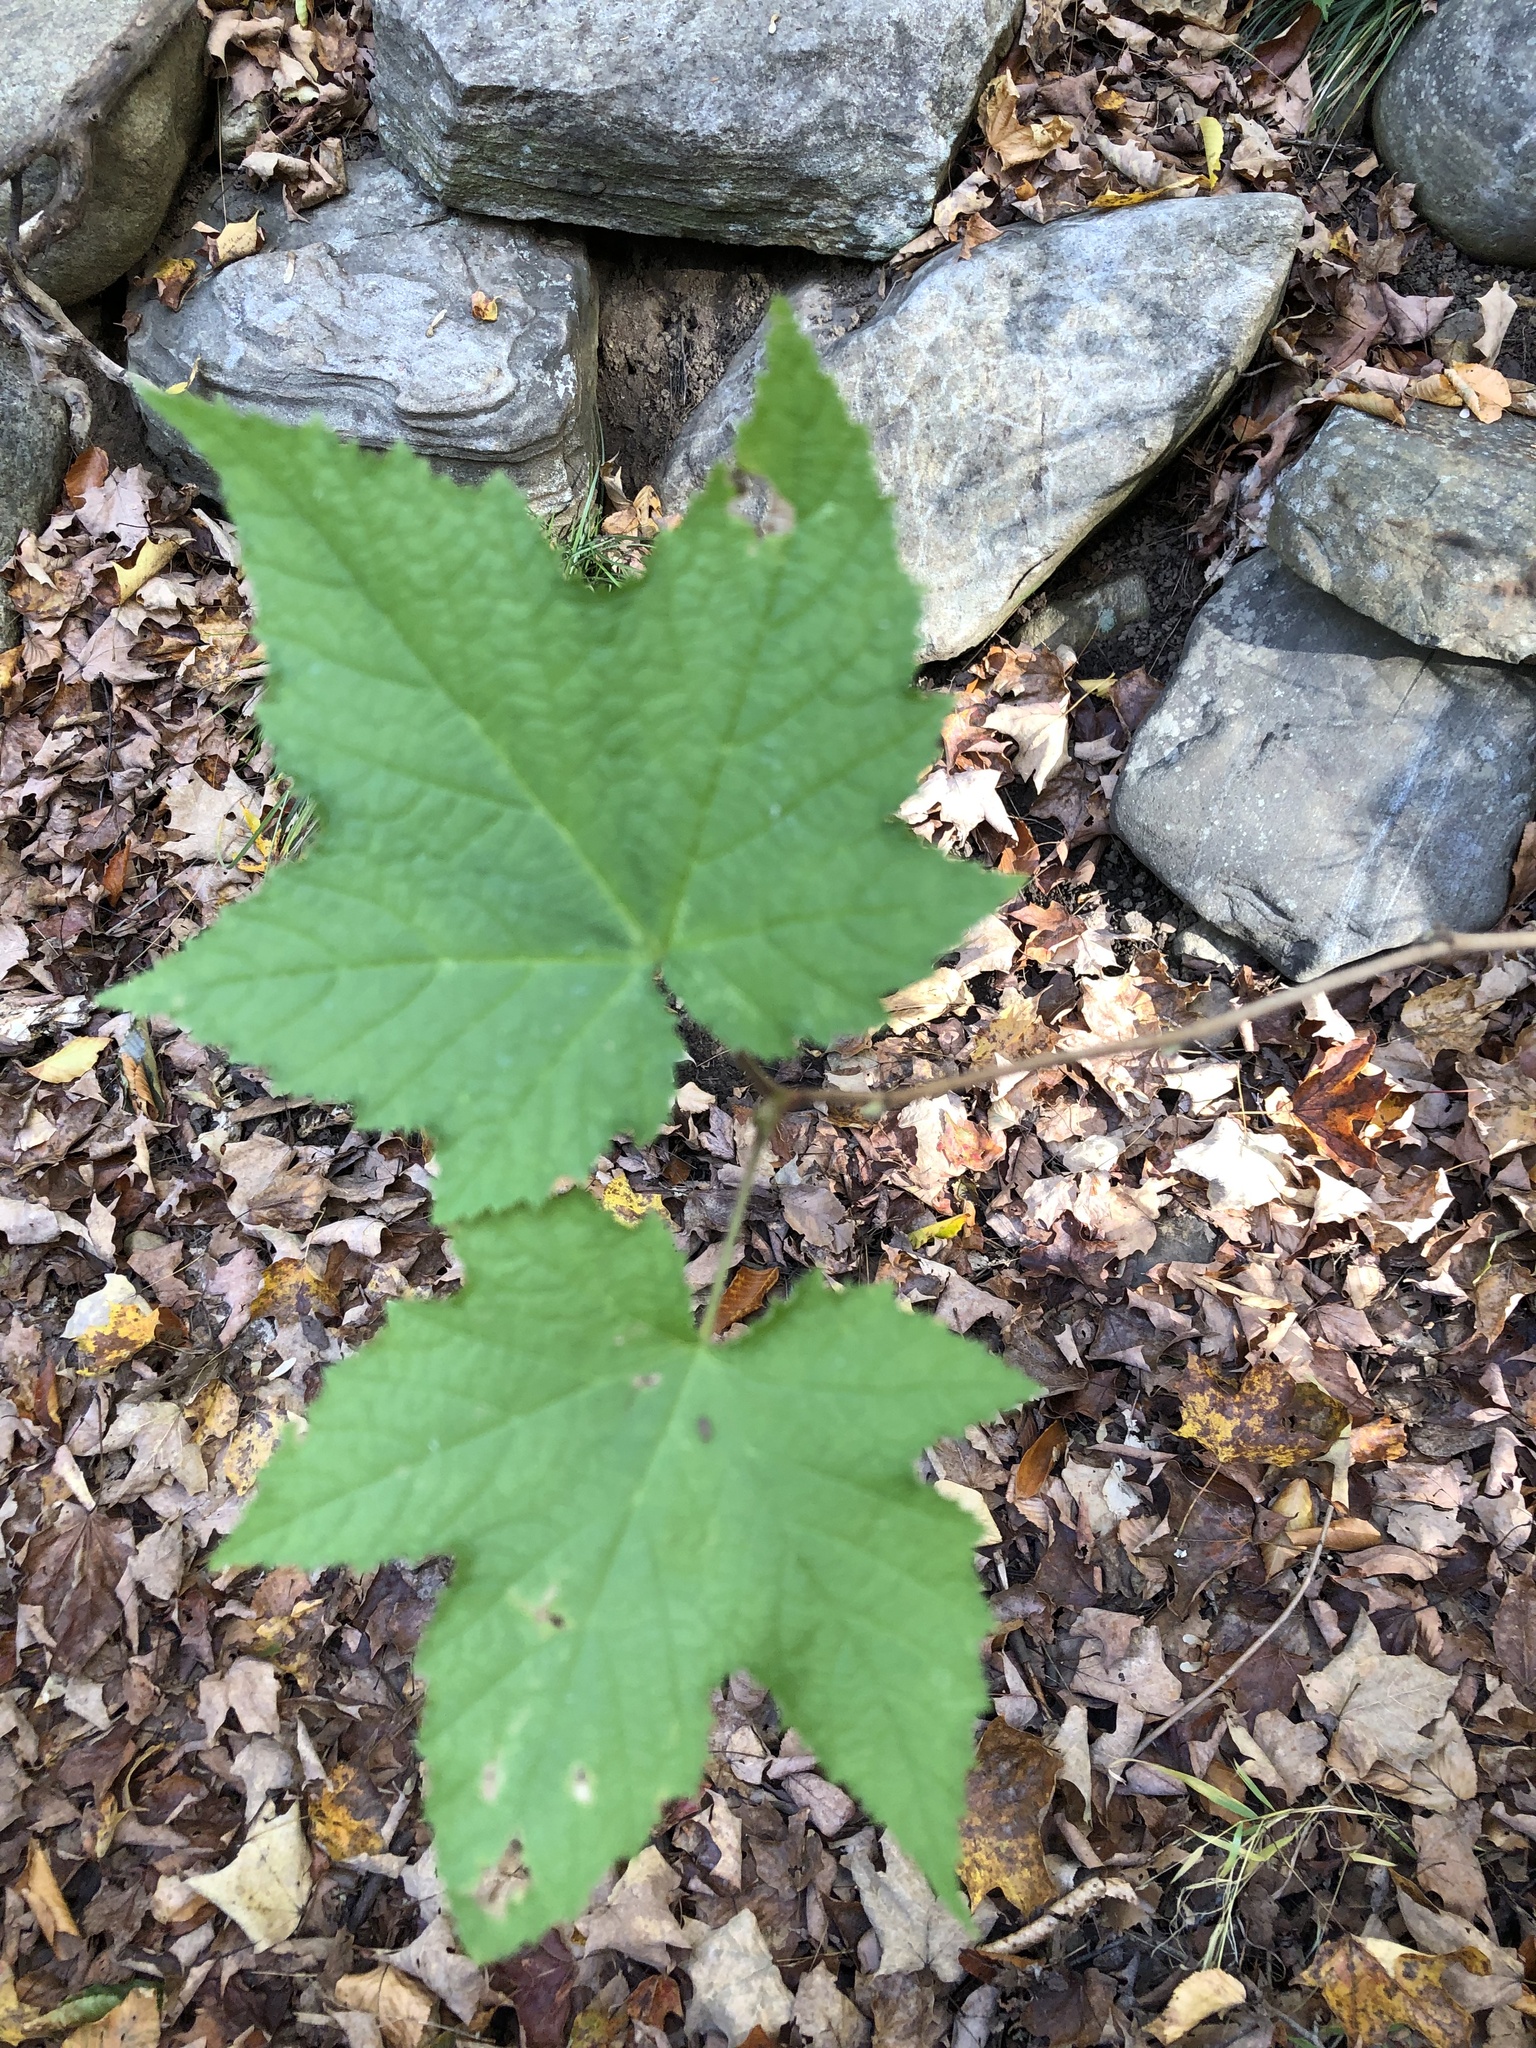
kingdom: Plantae
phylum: Tracheophyta
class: Magnoliopsida
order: Rosales
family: Rosaceae
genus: Rubus
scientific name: Rubus odoratus
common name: Purple-flowered raspberry
